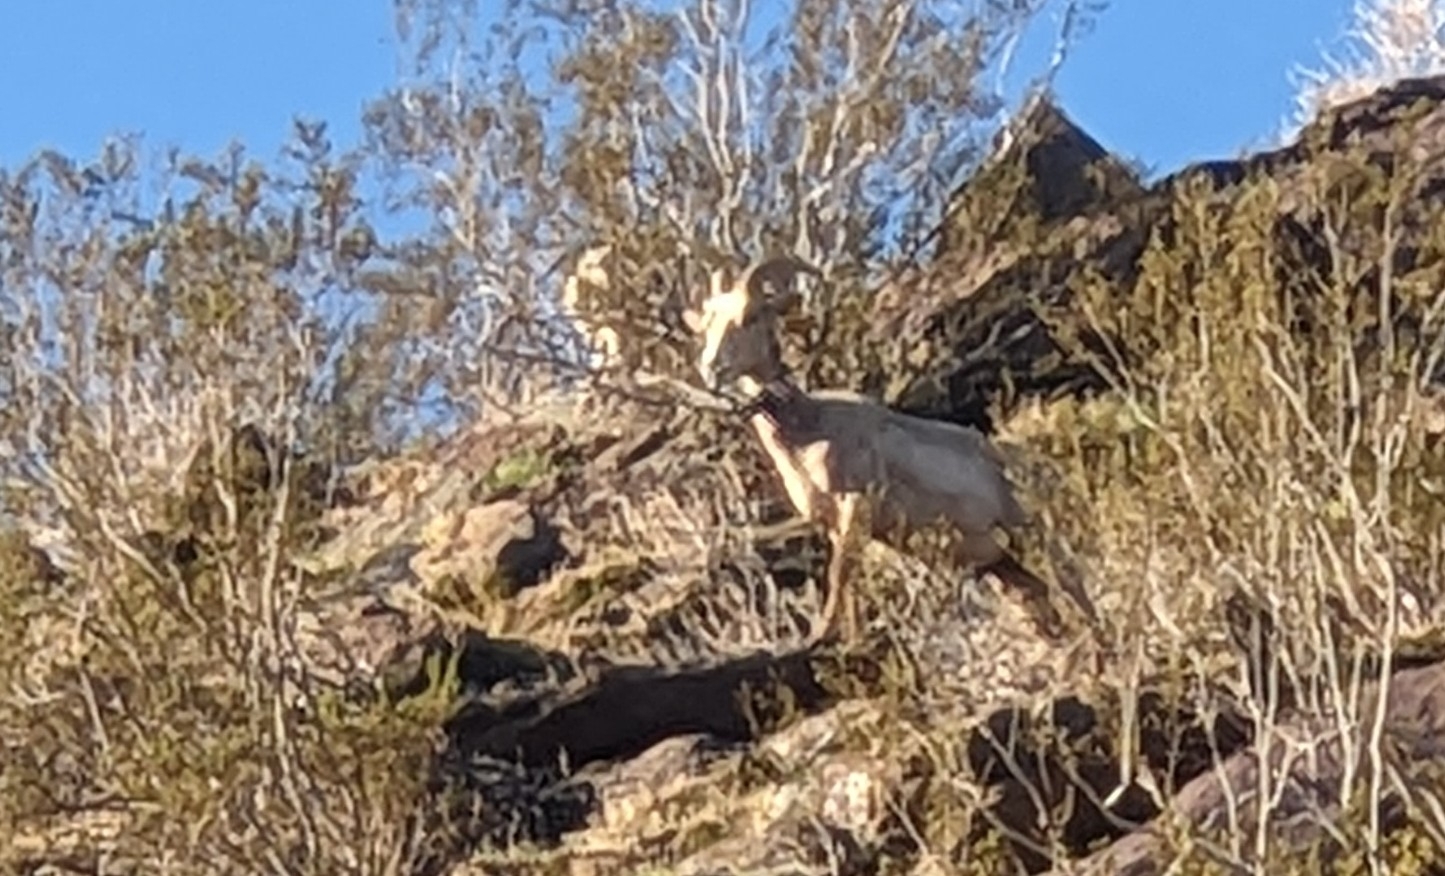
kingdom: Animalia
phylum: Chordata
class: Mammalia
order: Artiodactyla
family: Bovidae
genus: Ovis
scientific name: Ovis canadensis
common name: Bighorn sheep
